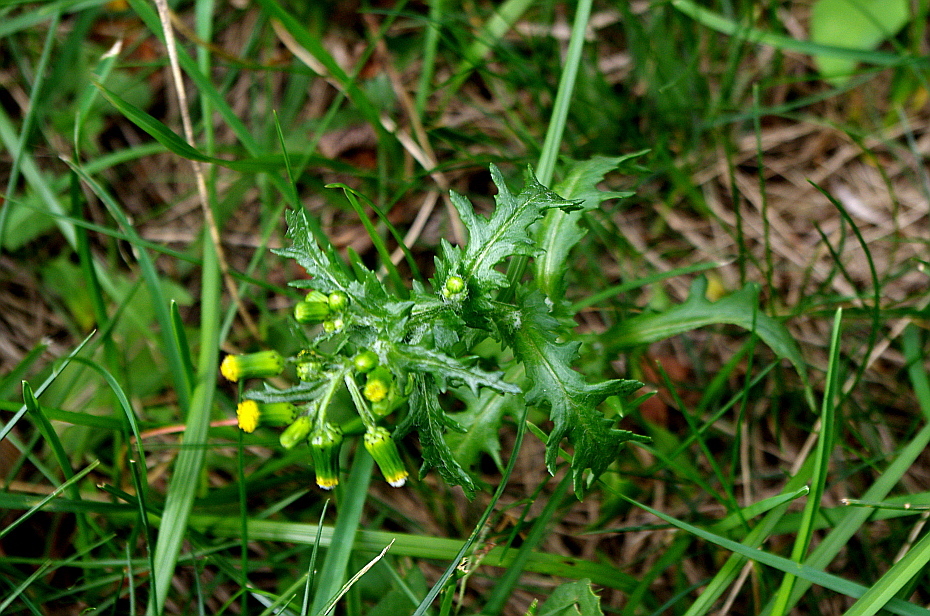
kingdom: Plantae
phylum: Tracheophyta
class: Magnoliopsida
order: Asterales
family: Asteraceae
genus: Senecio
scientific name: Senecio vulgaris
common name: Old-man-in-the-spring
